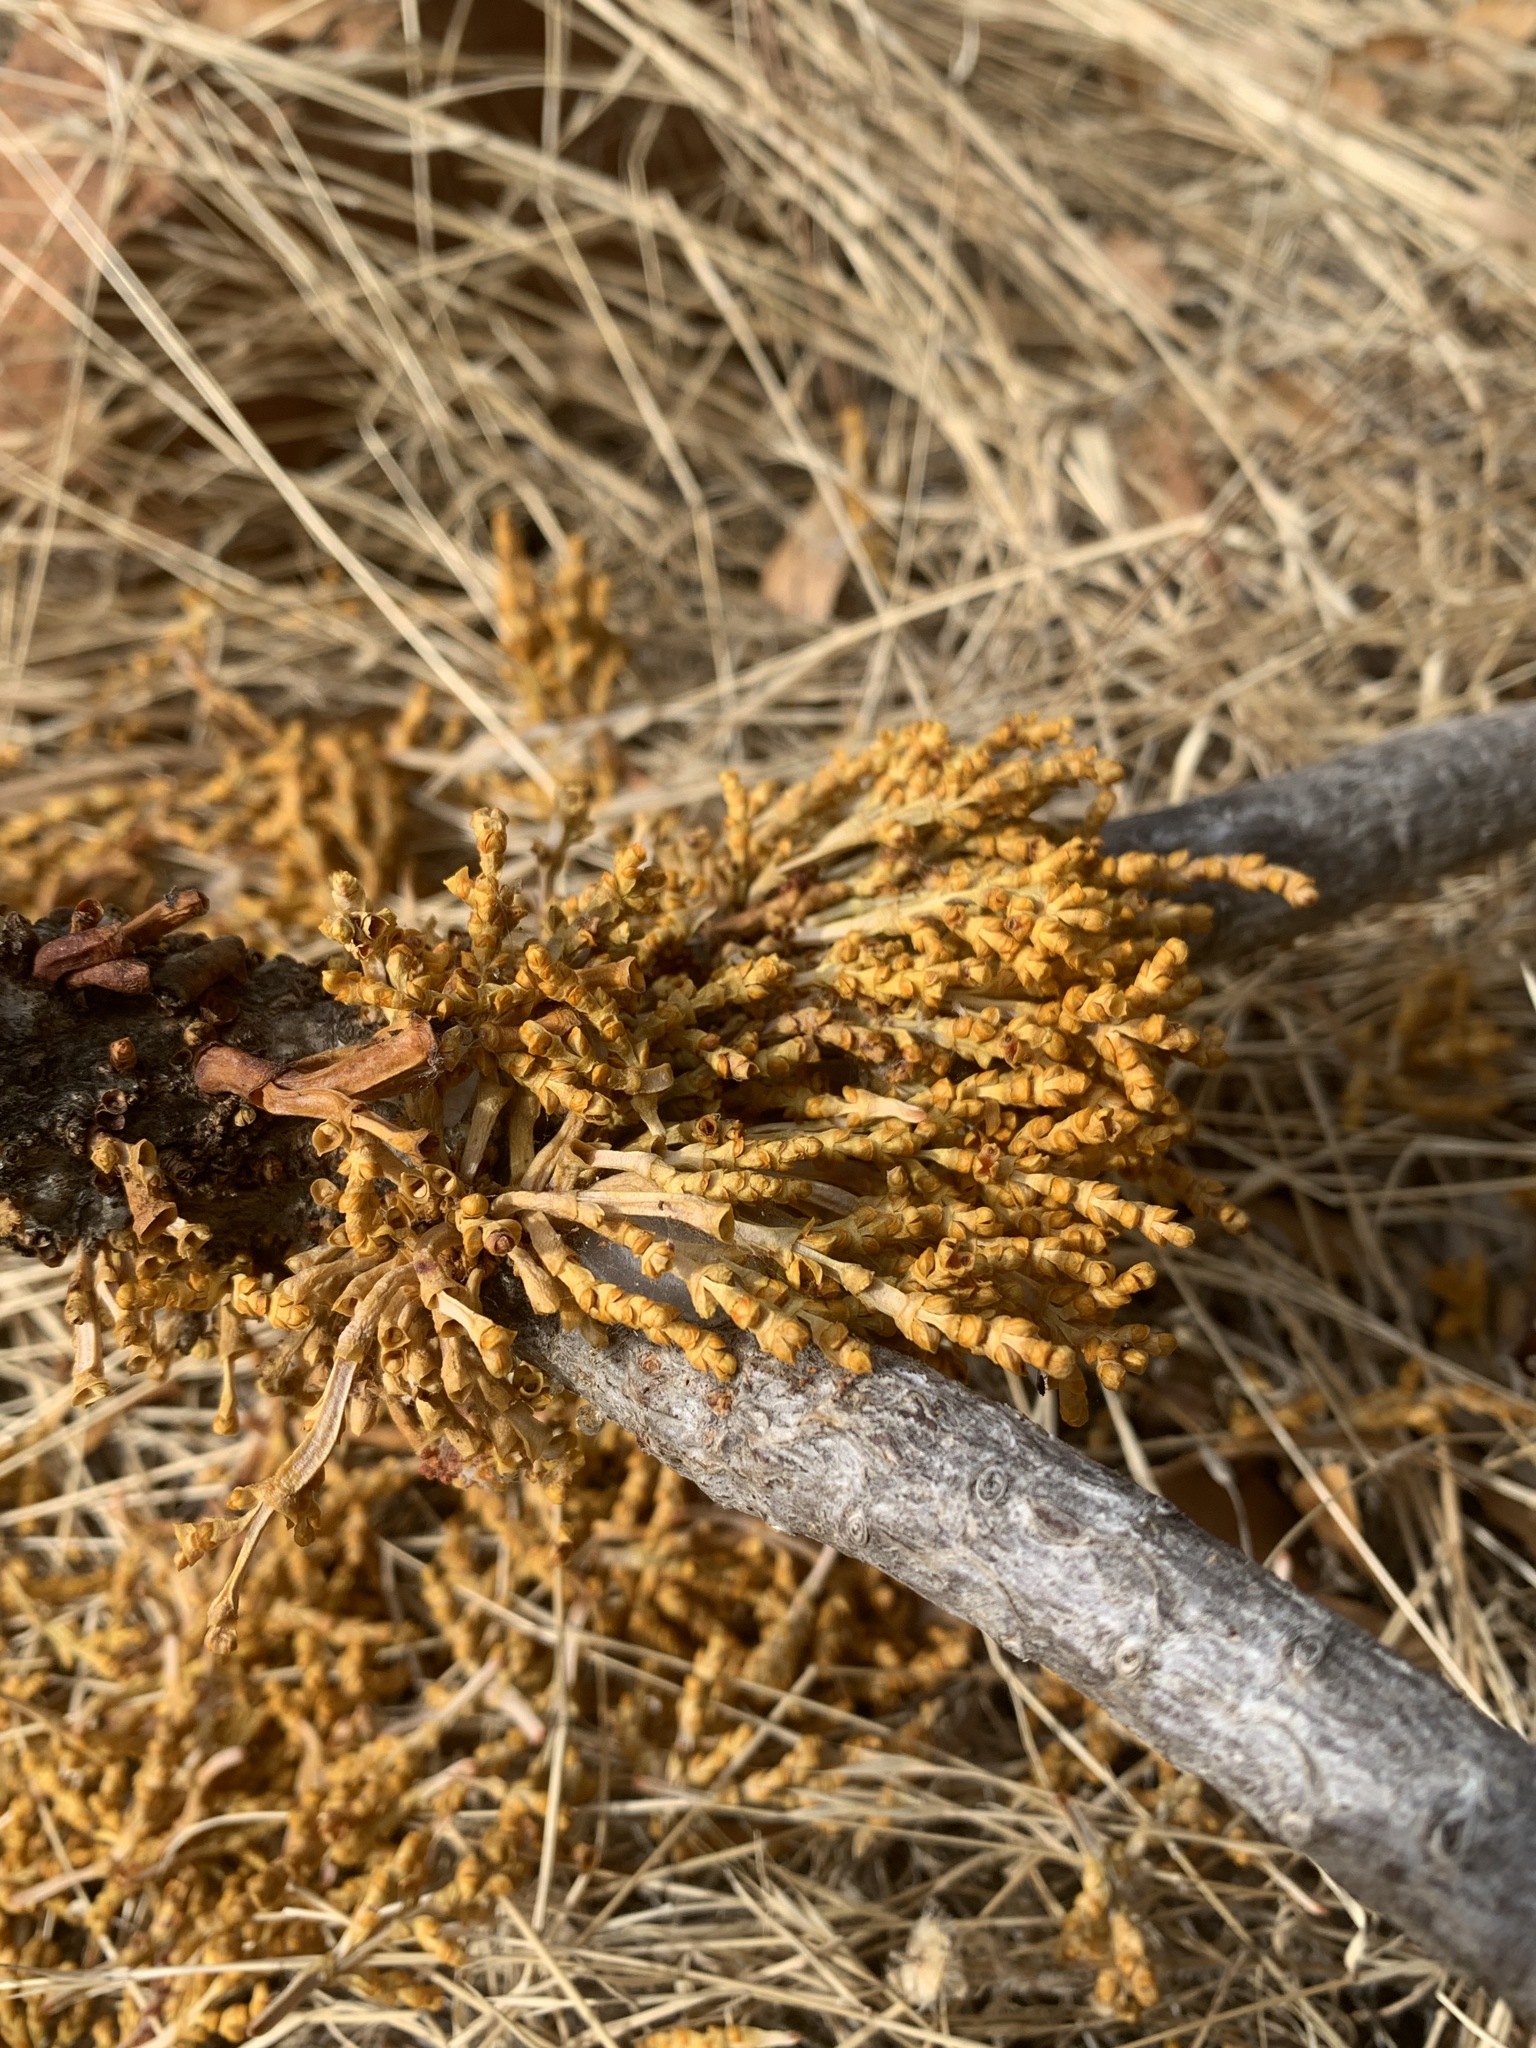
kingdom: Plantae
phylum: Tracheophyta
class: Magnoliopsida
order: Santalales
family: Viscaceae
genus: Arceuthobium
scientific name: Arceuthobium campylopodum
